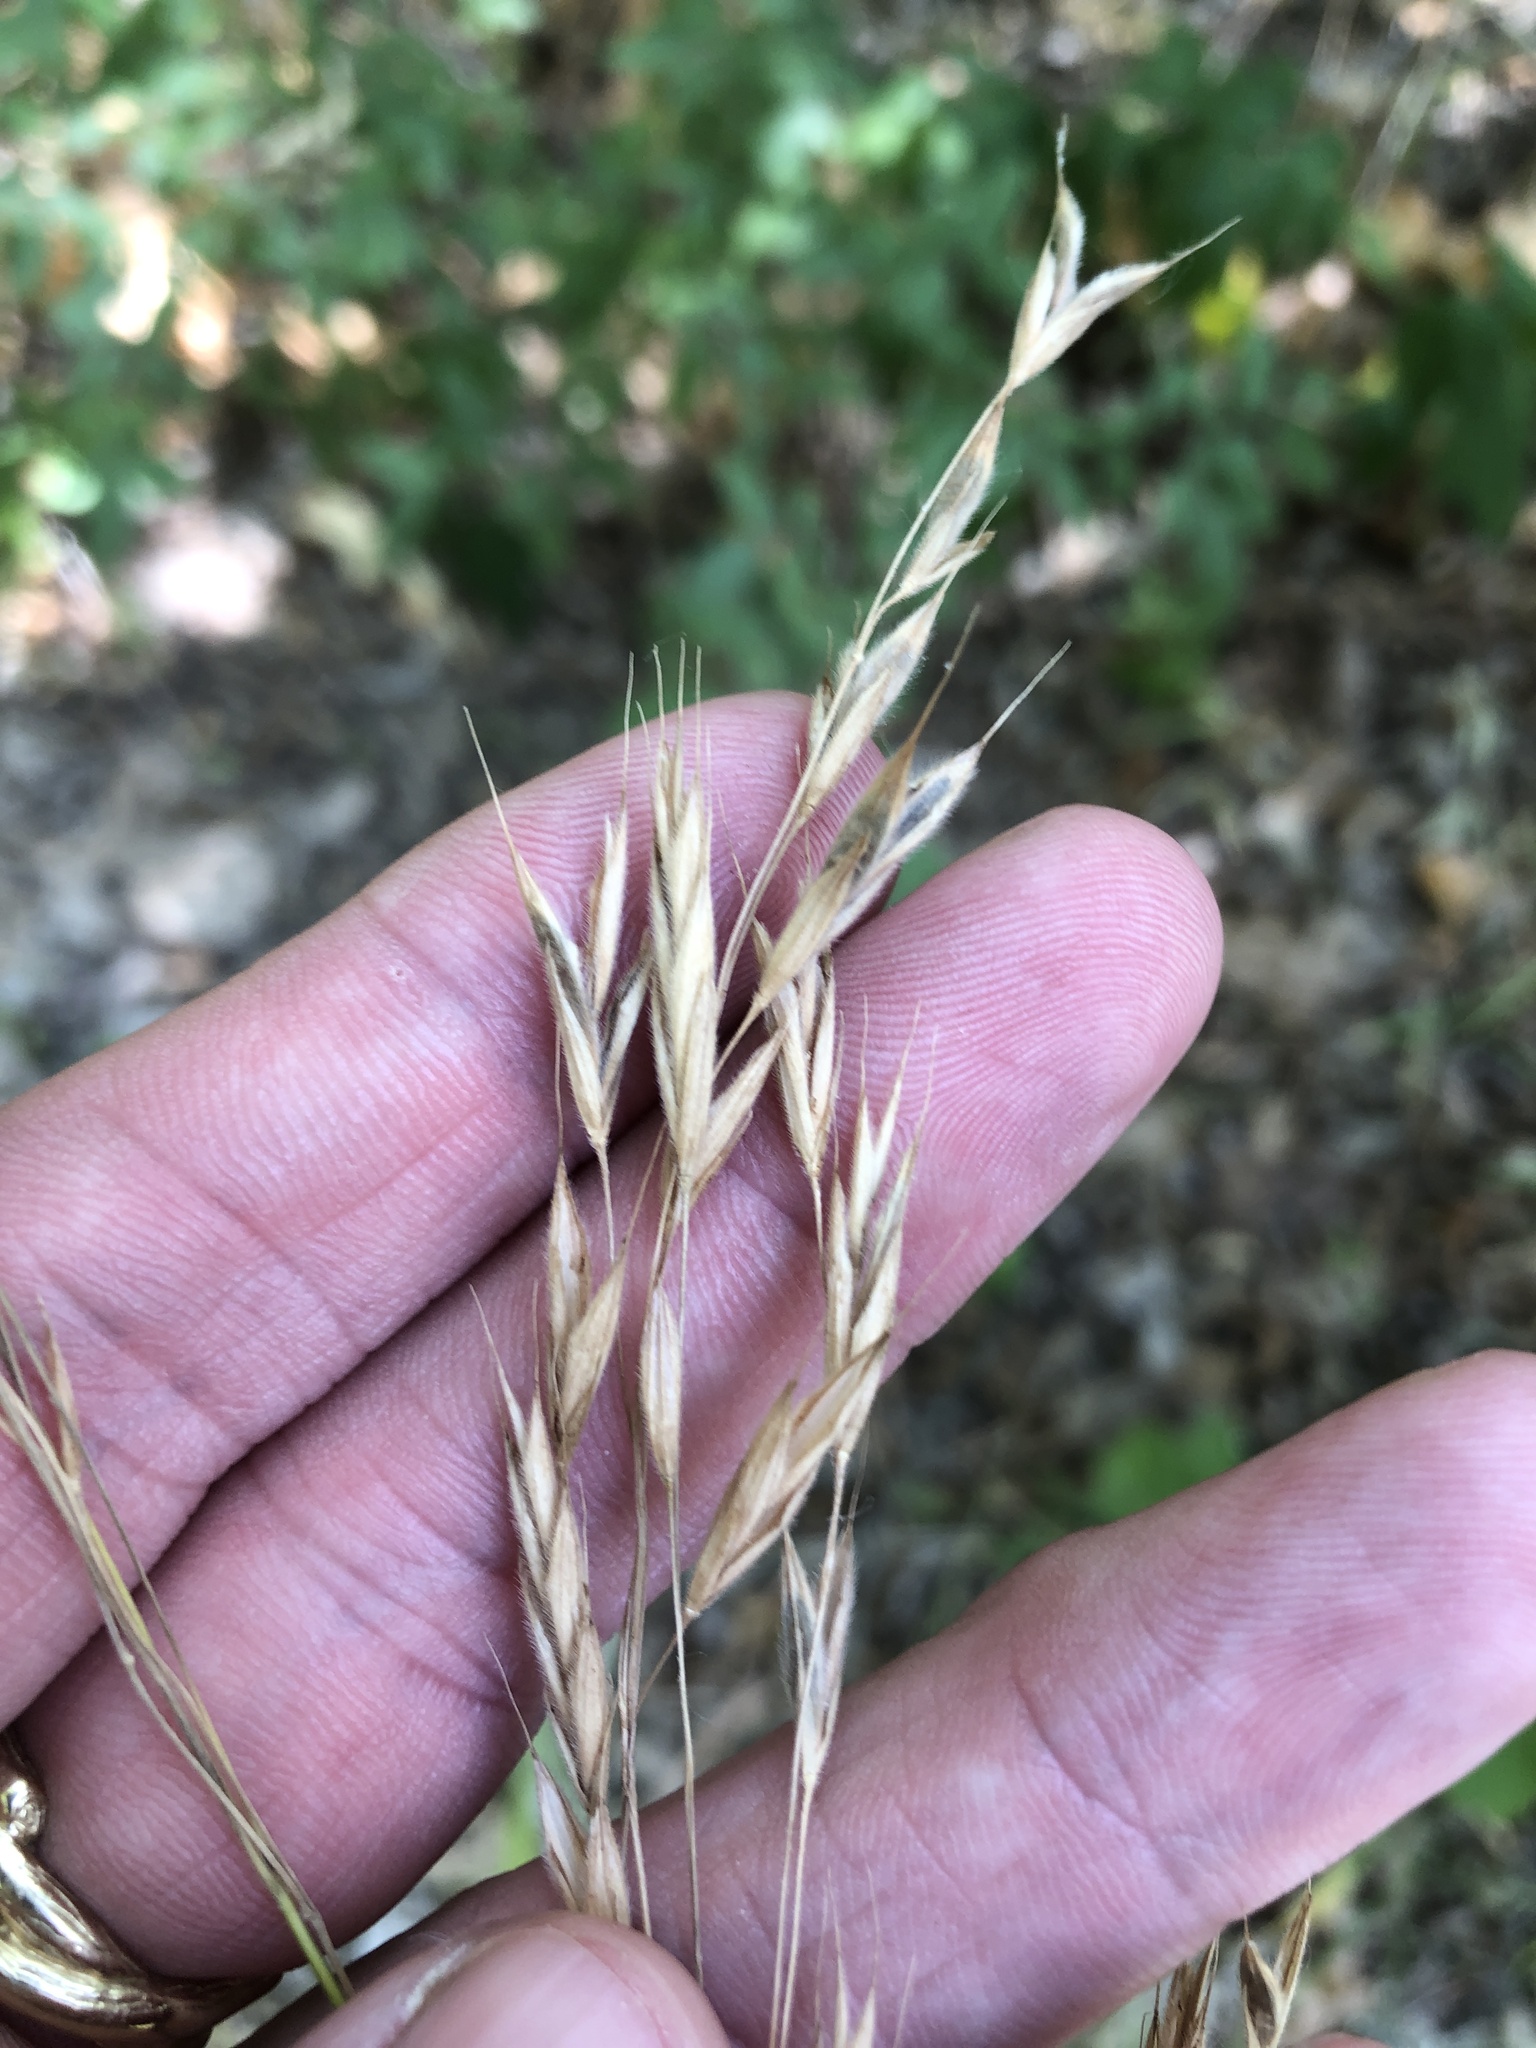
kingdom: Plantae
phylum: Tracheophyta
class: Liliopsida
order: Poales
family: Poaceae
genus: Bromus
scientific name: Bromus pubescens
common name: Hairy wood brome grass
